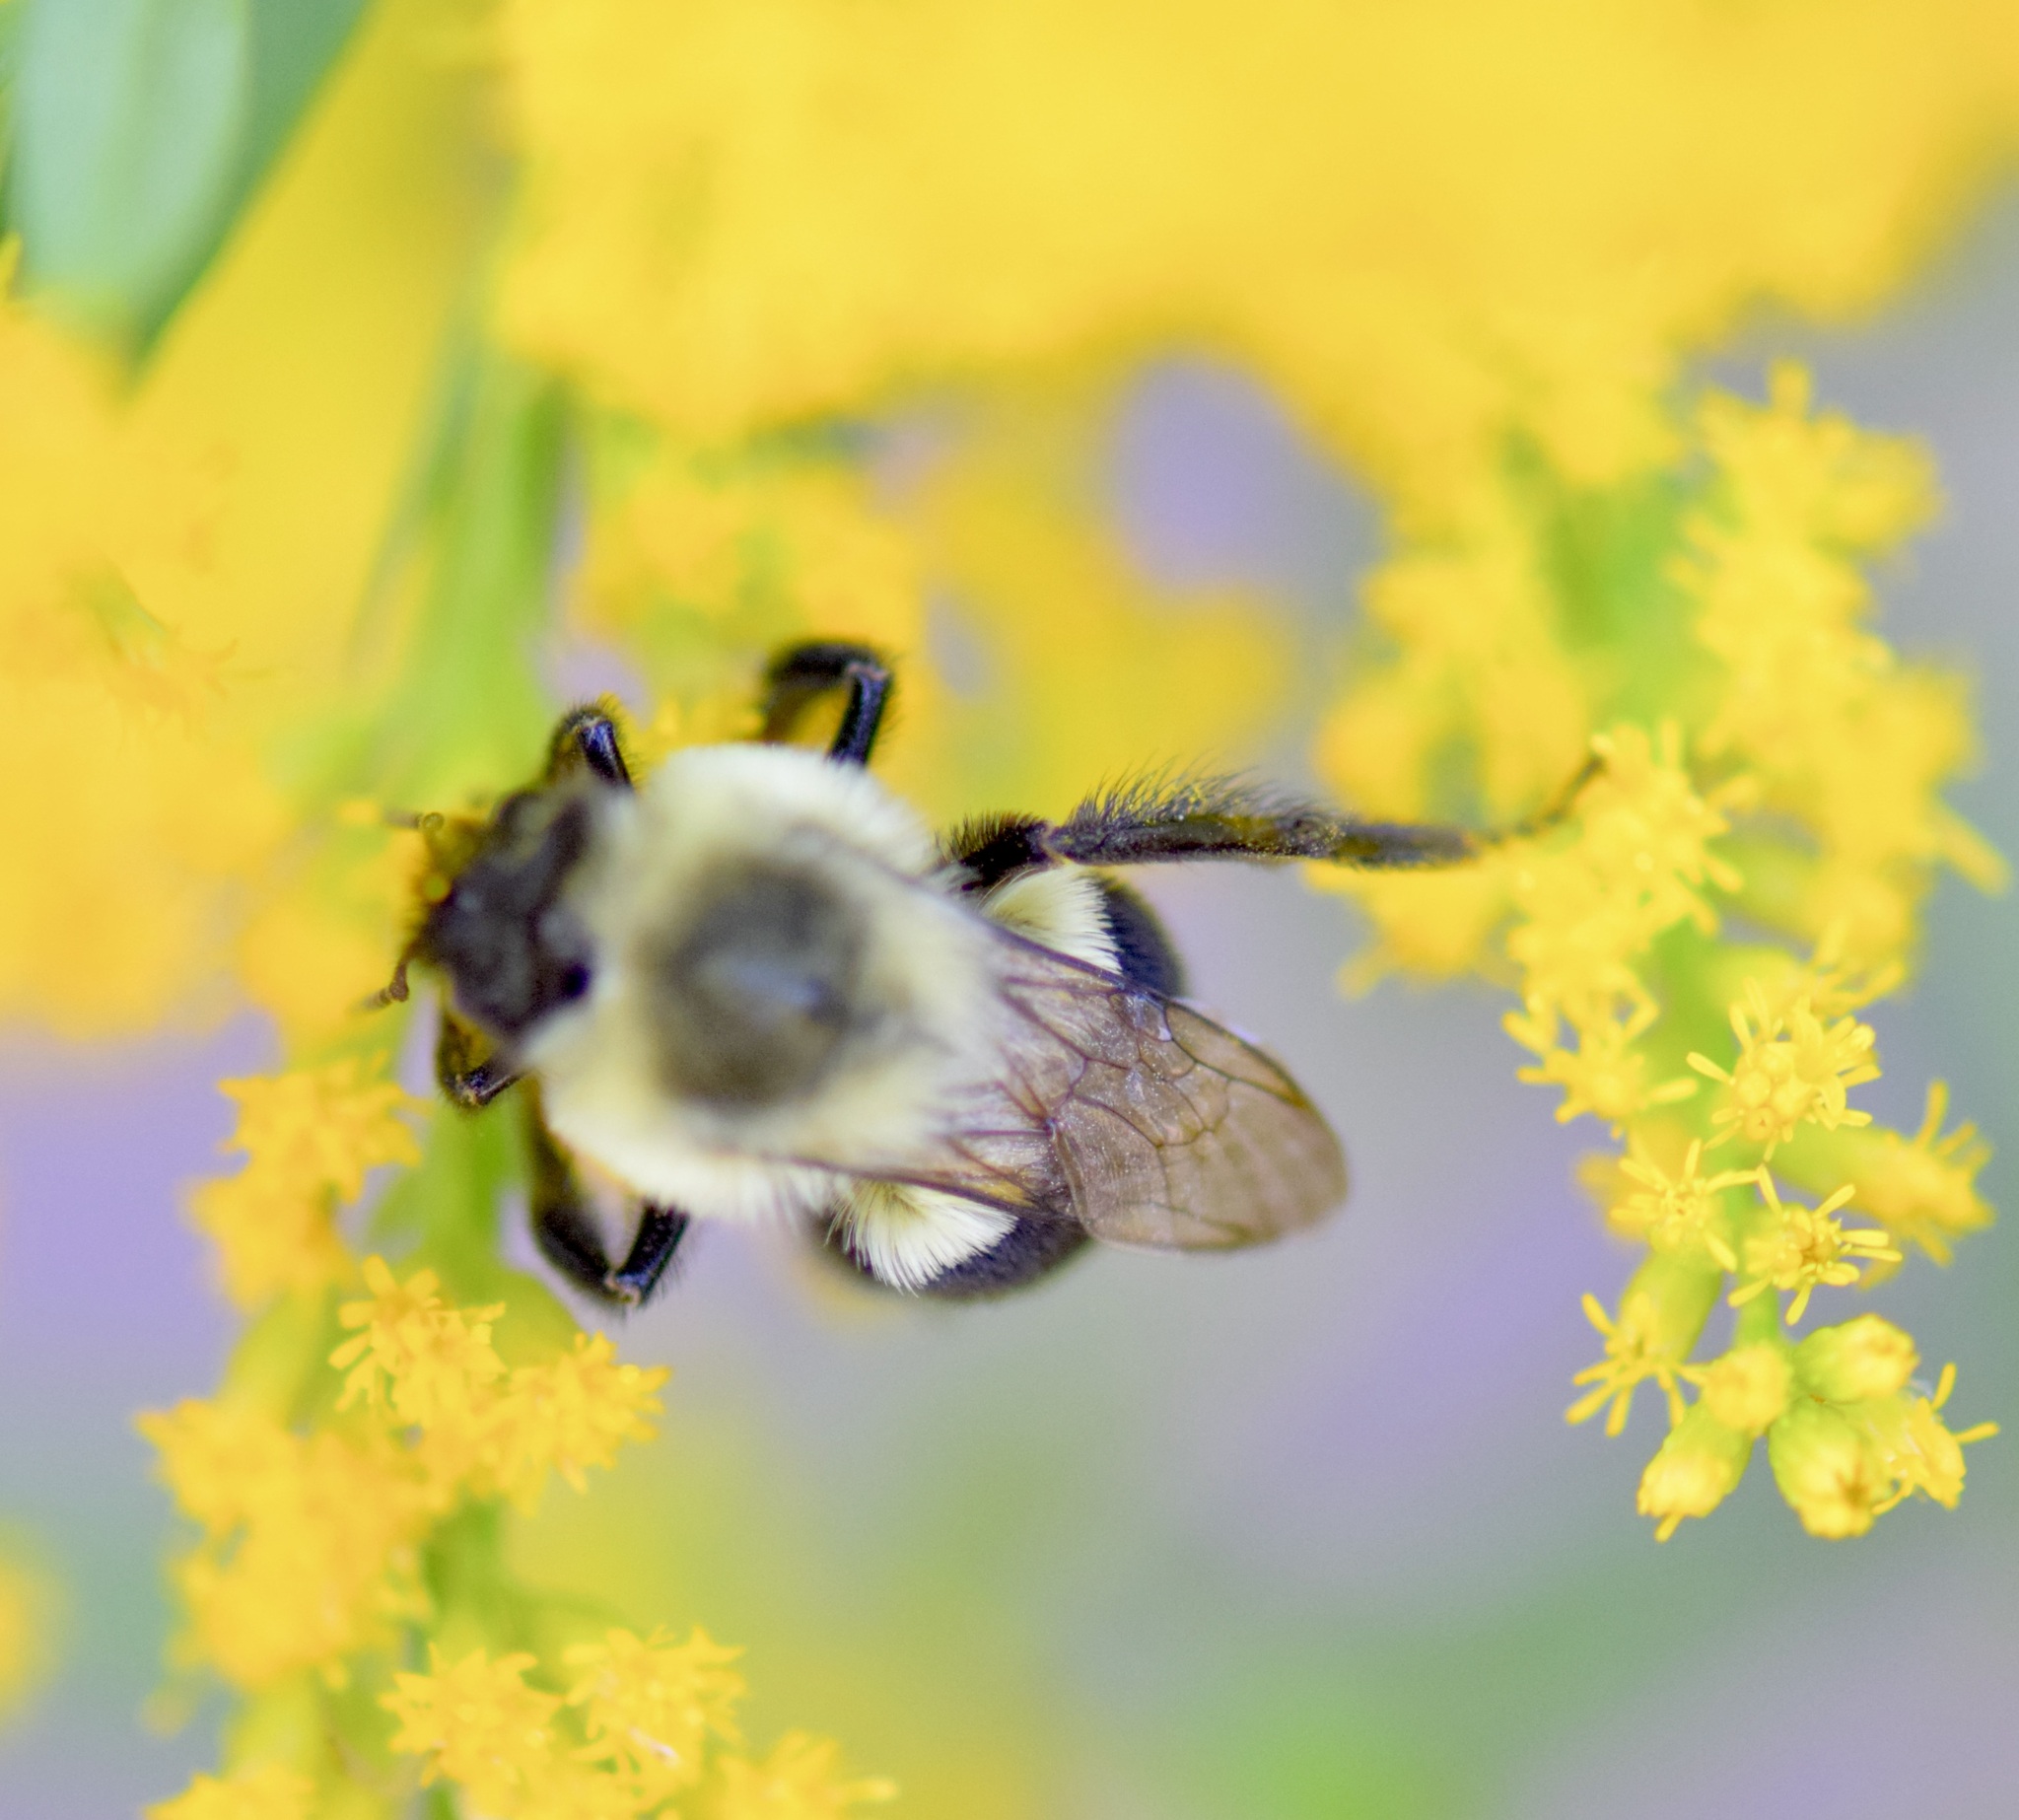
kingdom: Animalia
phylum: Arthropoda
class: Insecta
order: Hymenoptera
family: Apidae
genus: Bombus
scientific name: Bombus impatiens
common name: Common eastern bumble bee
